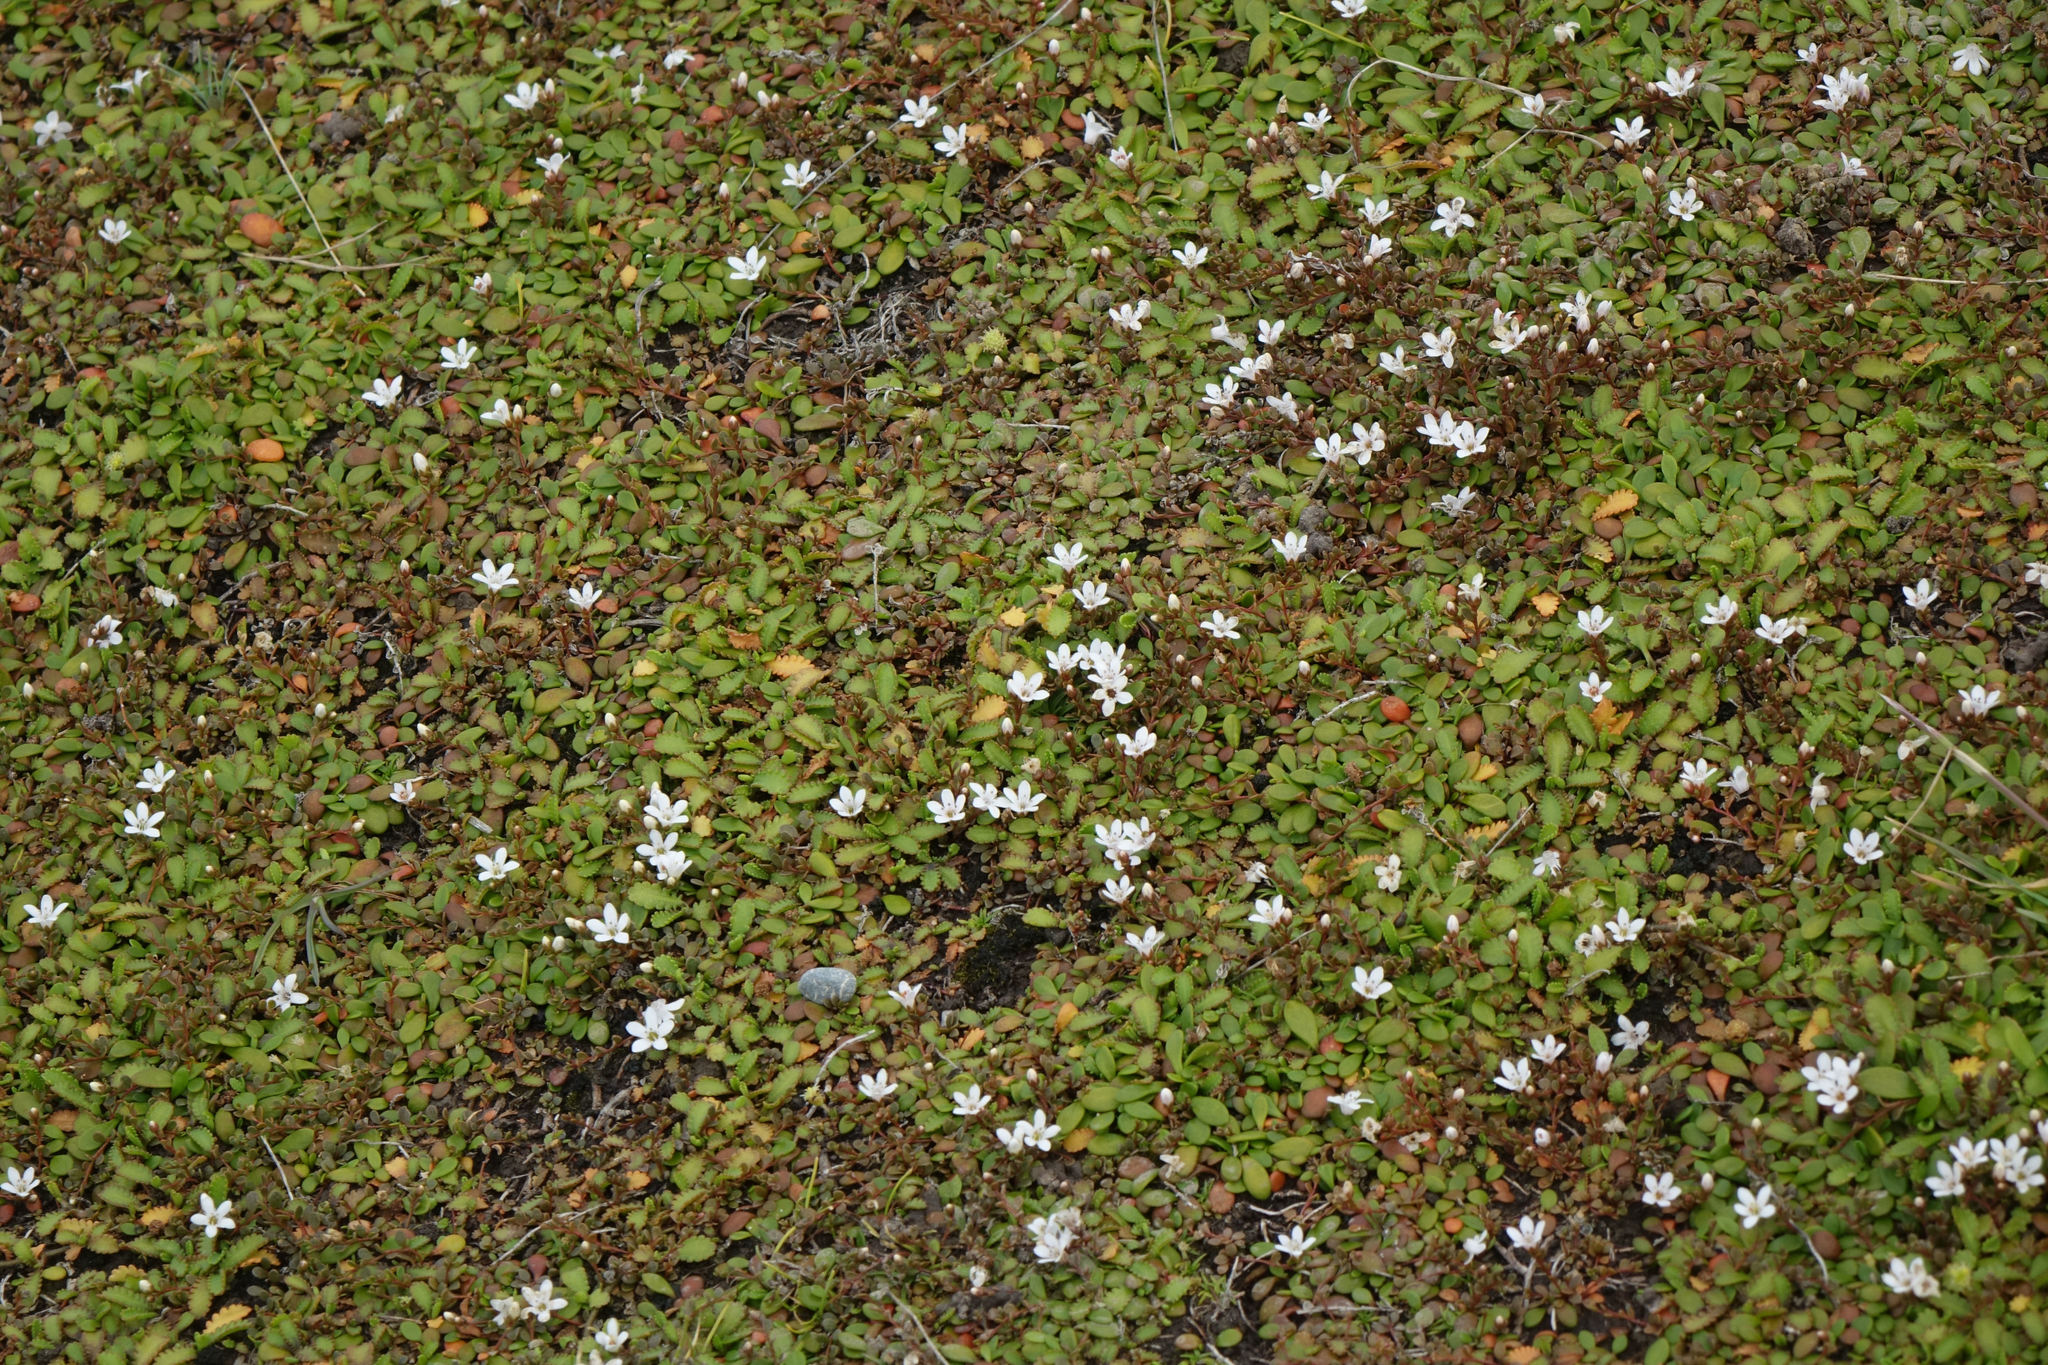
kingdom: Plantae
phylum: Tracheophyta
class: Magnoliopsida
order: Ericales
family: Primulaceae
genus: Samolus
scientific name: Samolus repens
